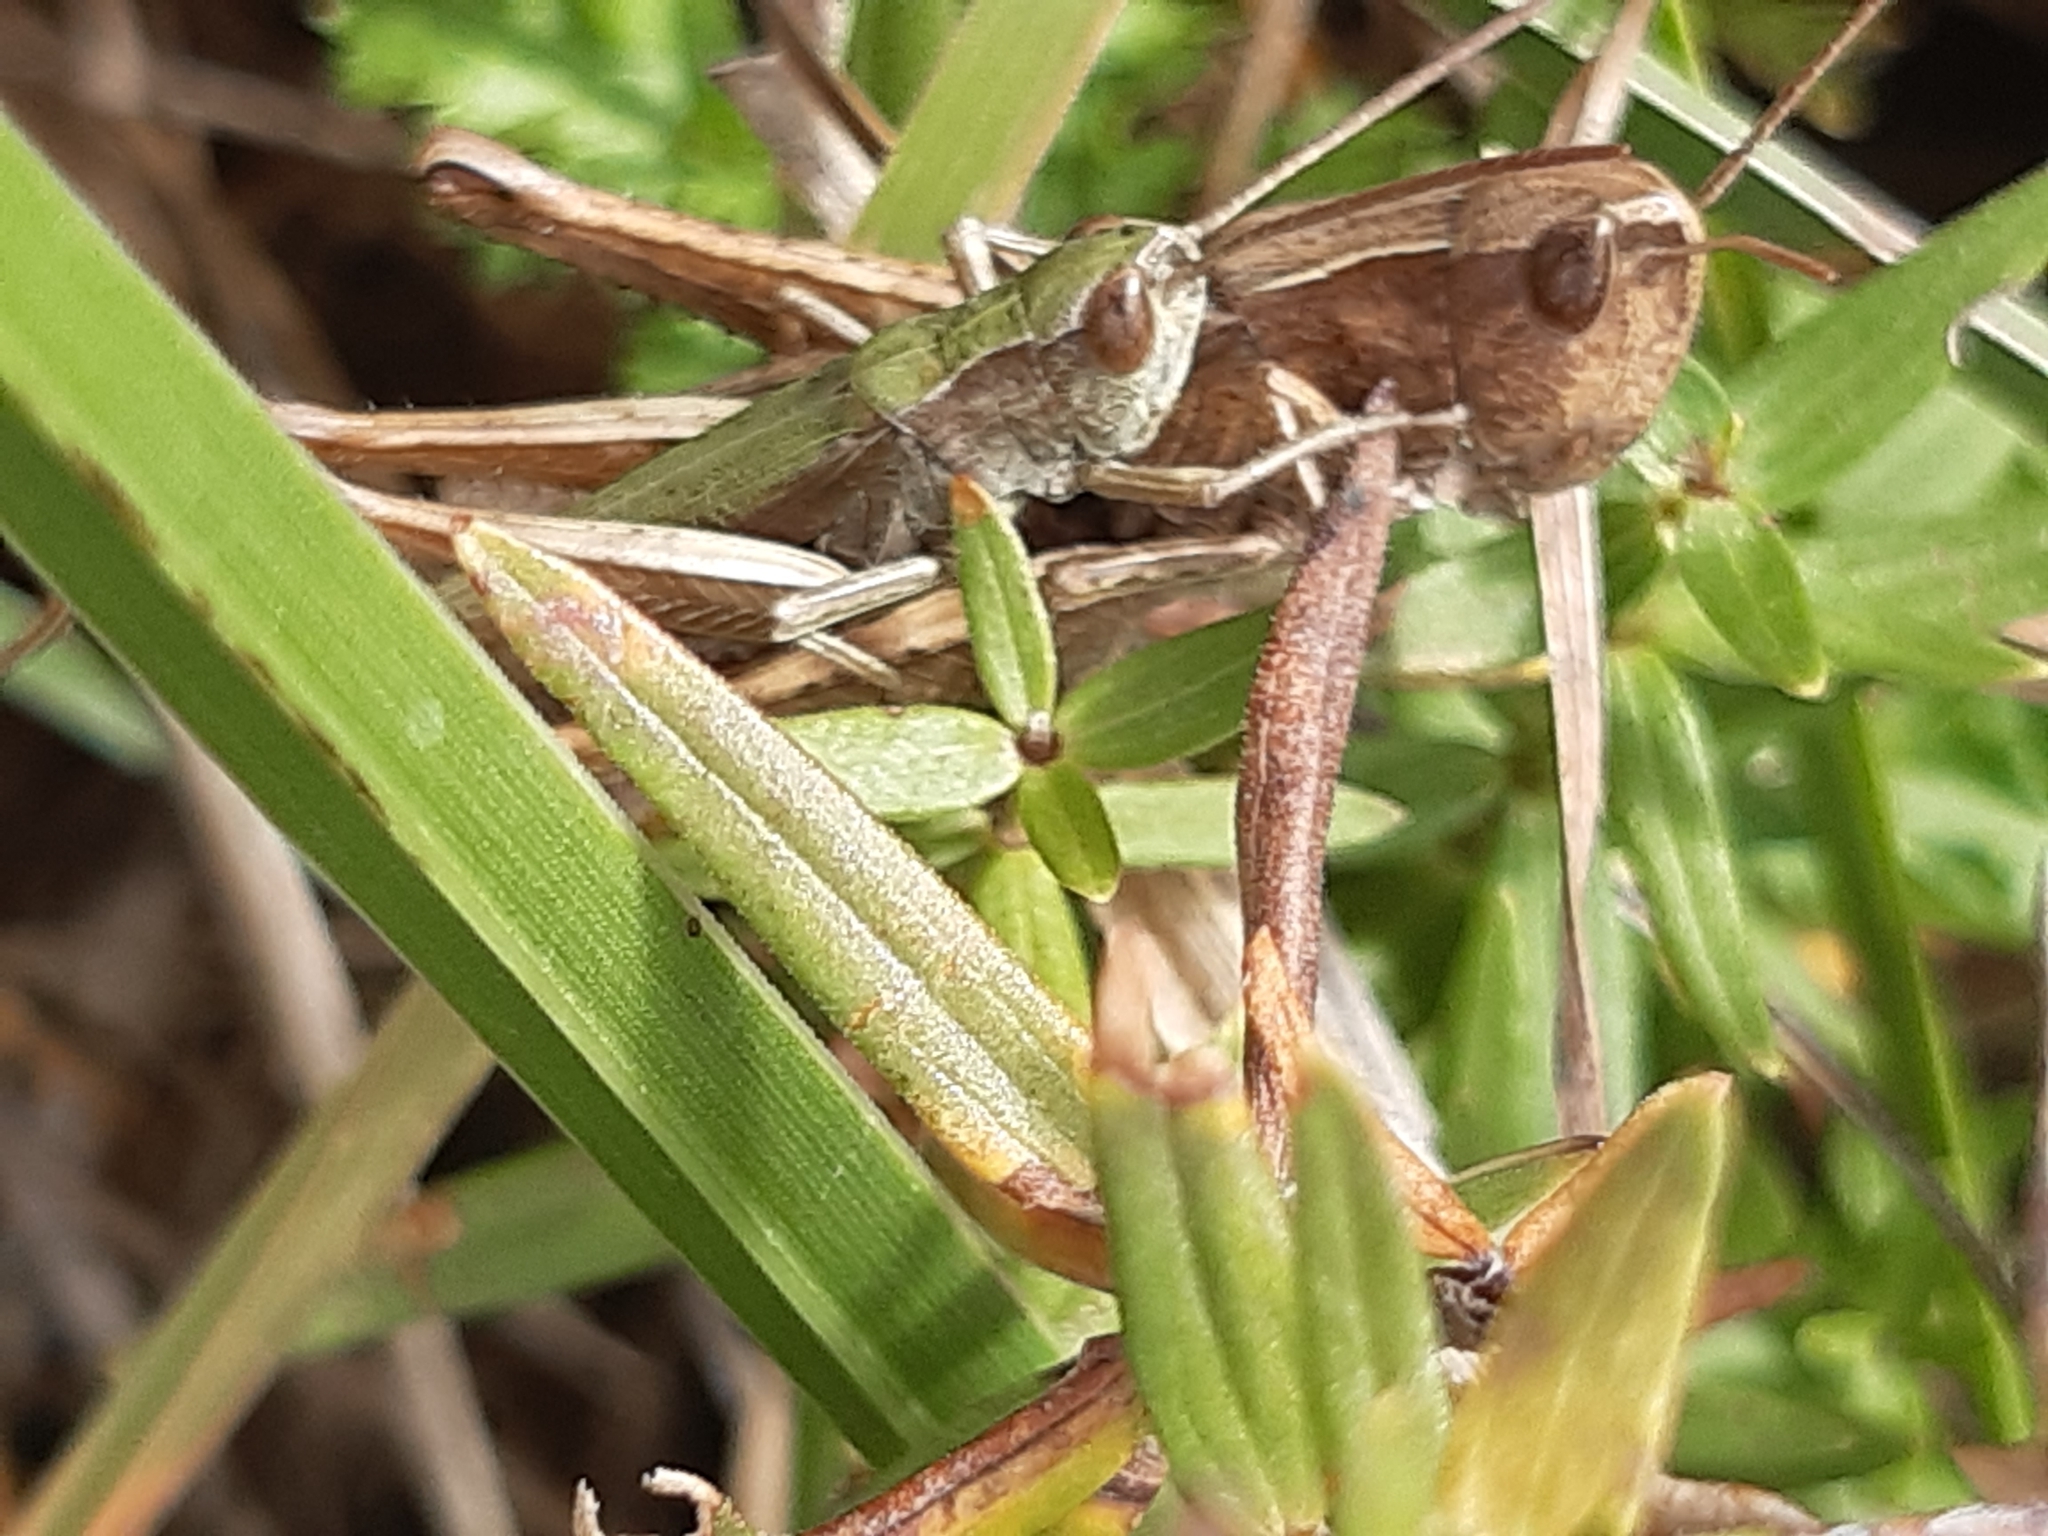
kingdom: Animalia
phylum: Arthropoda
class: Insecta
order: Orthoptera
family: Acrididae
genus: Chorthippus
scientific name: Chorthippus dorsatus
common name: Steppe grasshopper
